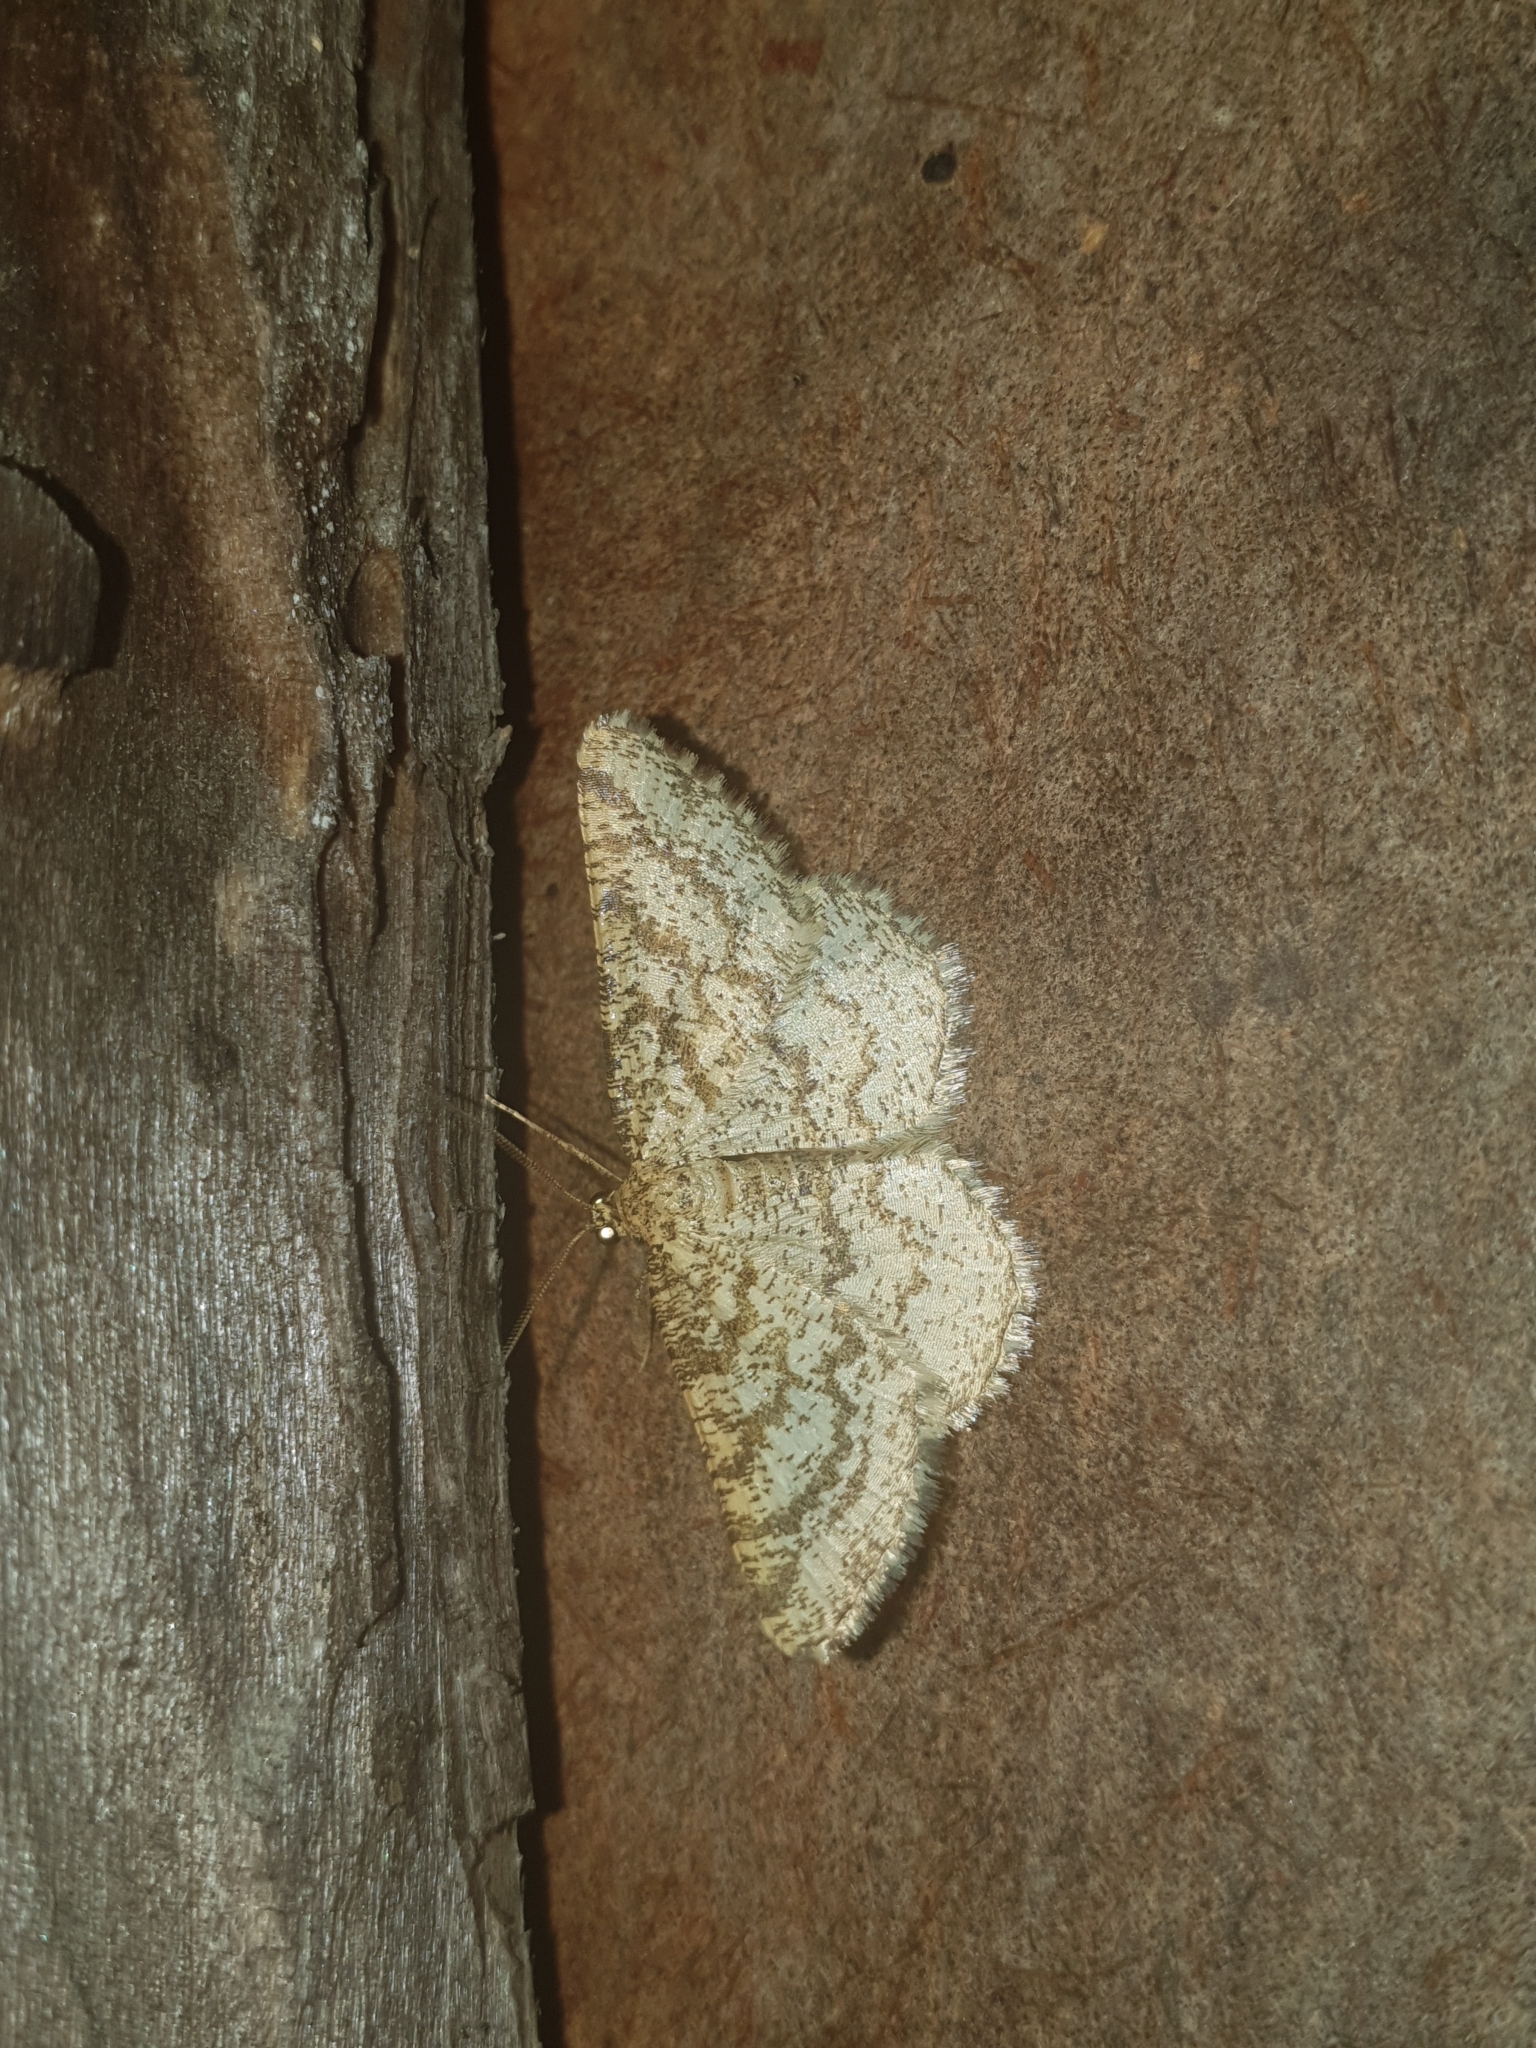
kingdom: Animalia
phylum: Arthropoda
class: Insecta
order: Lepidoptera
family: Geometridae
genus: Heliomata
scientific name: Heliomata glarearia
